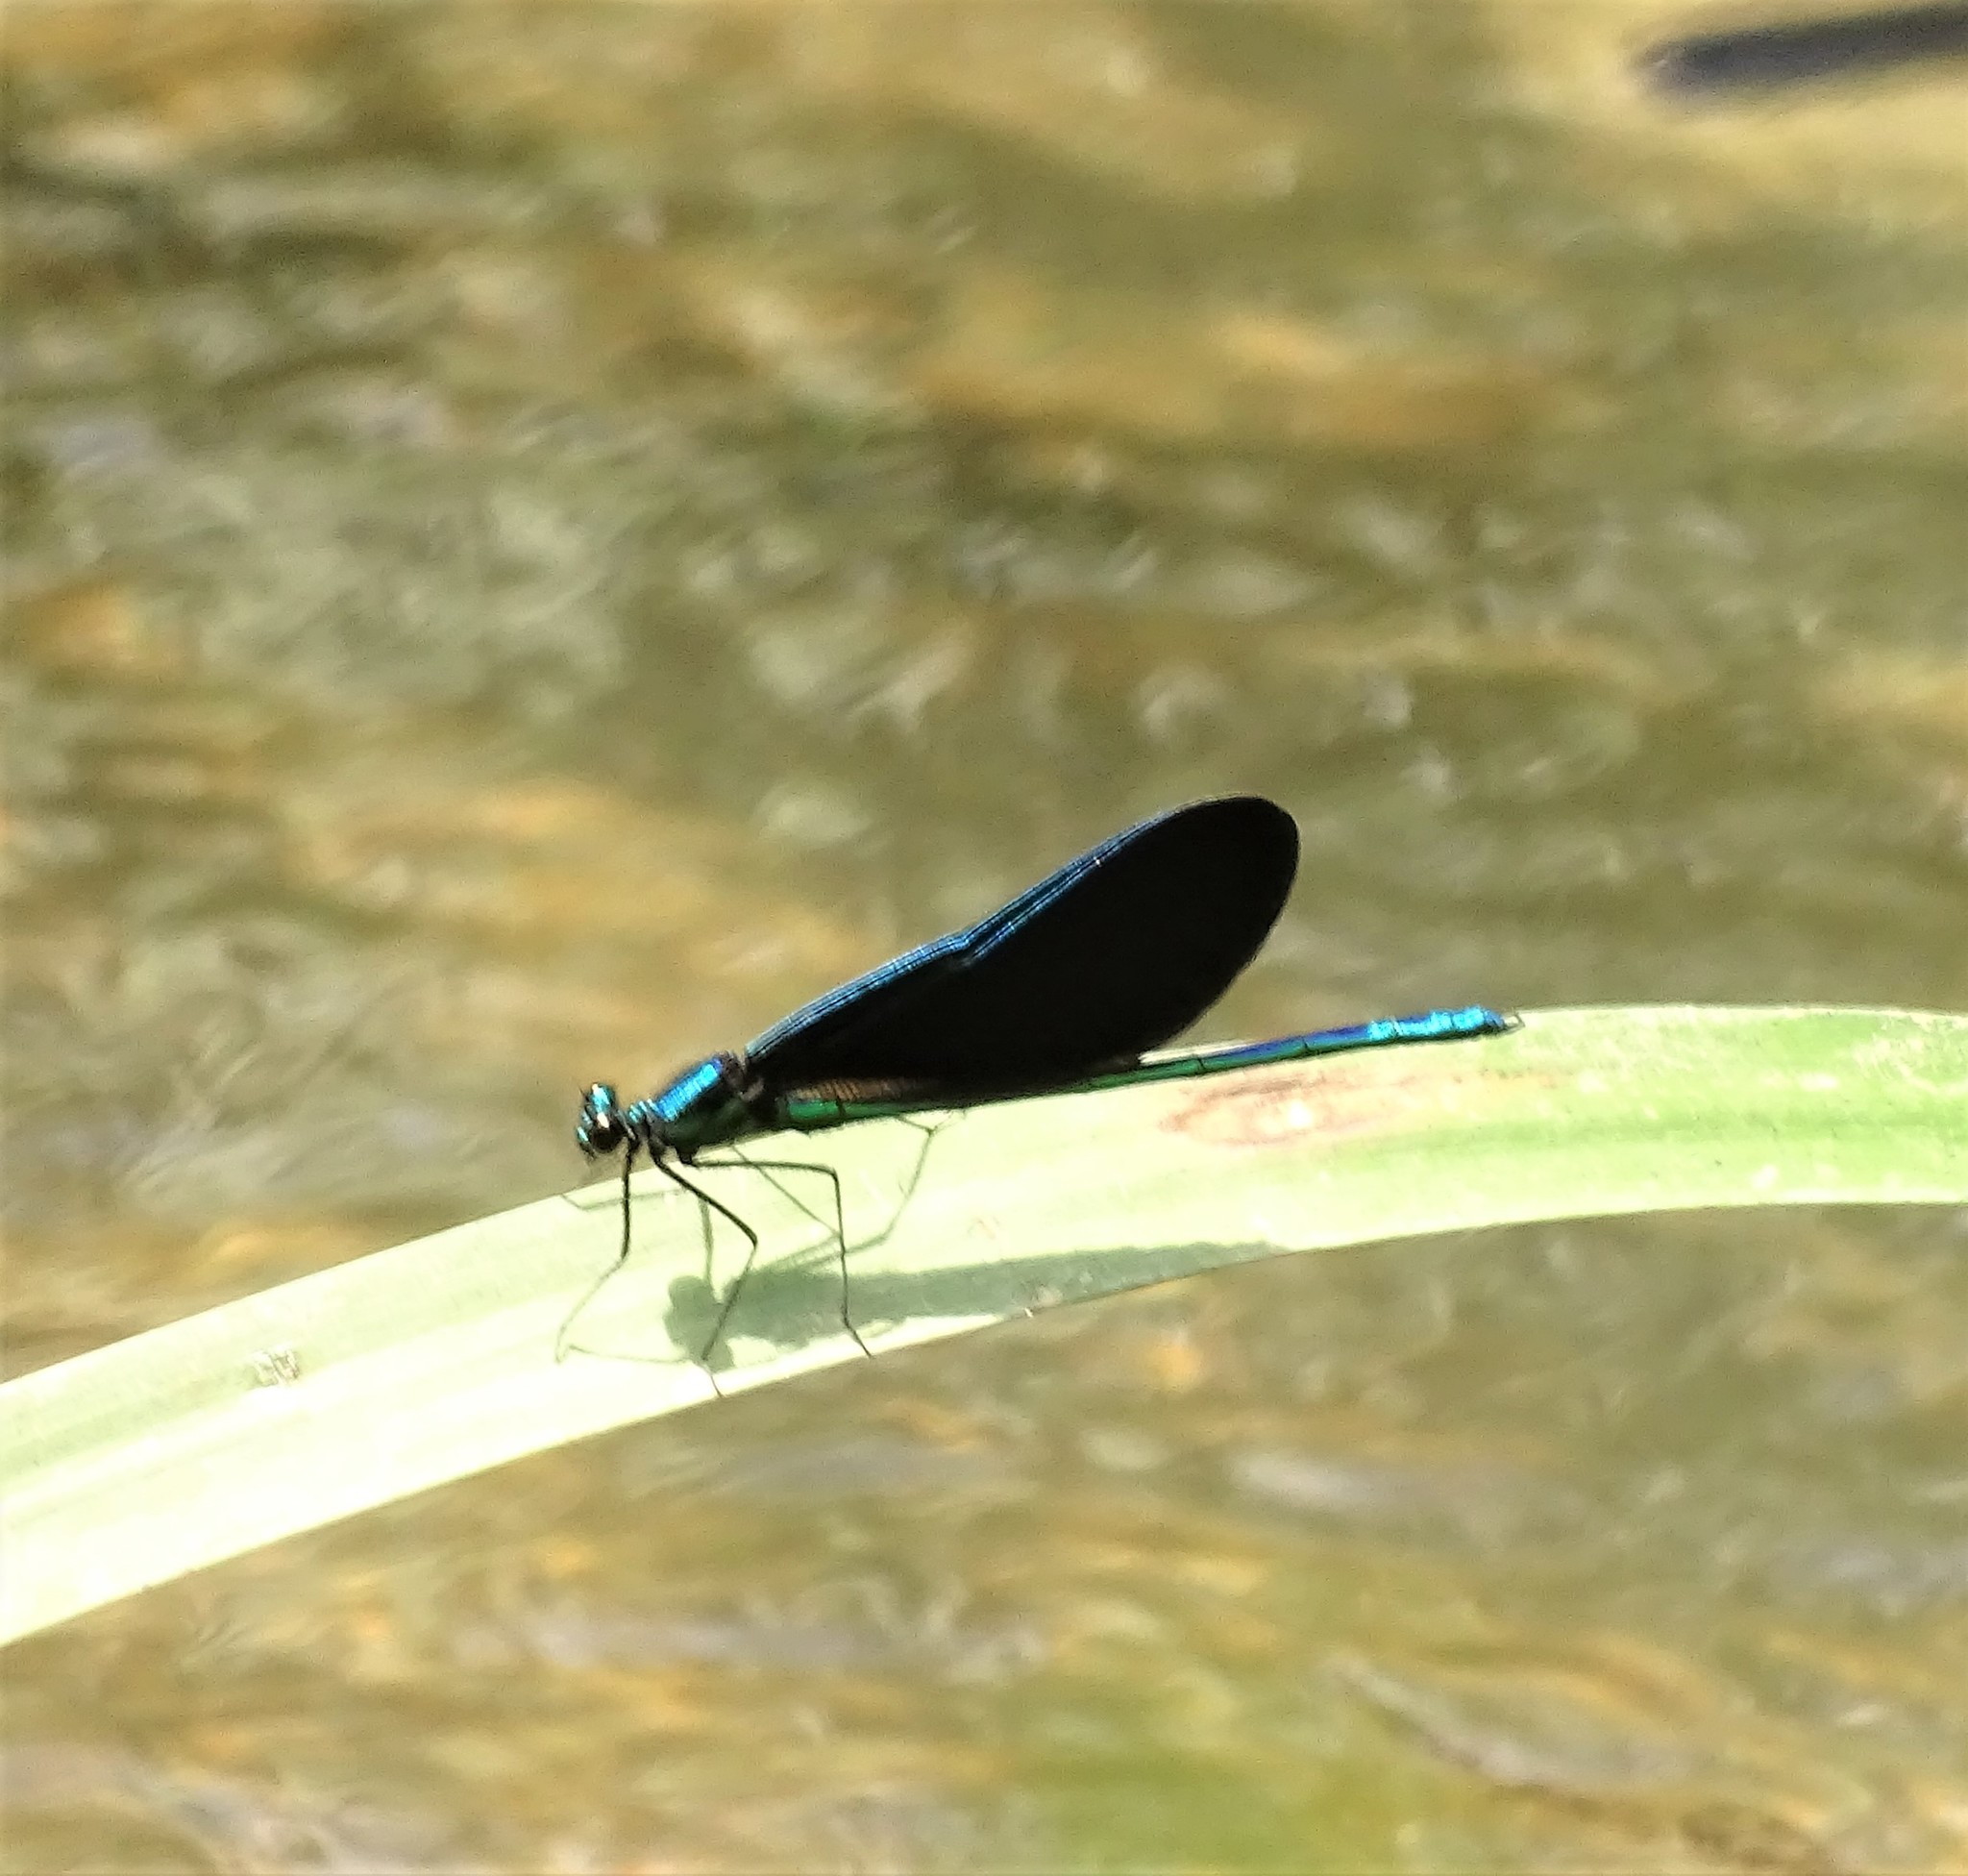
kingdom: Animalia
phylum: Arthropoda
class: Insecta
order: Odonata
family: Calopterygidae
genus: Calopteryx
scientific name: Calopteryx maculata
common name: Ebony jewelwing
